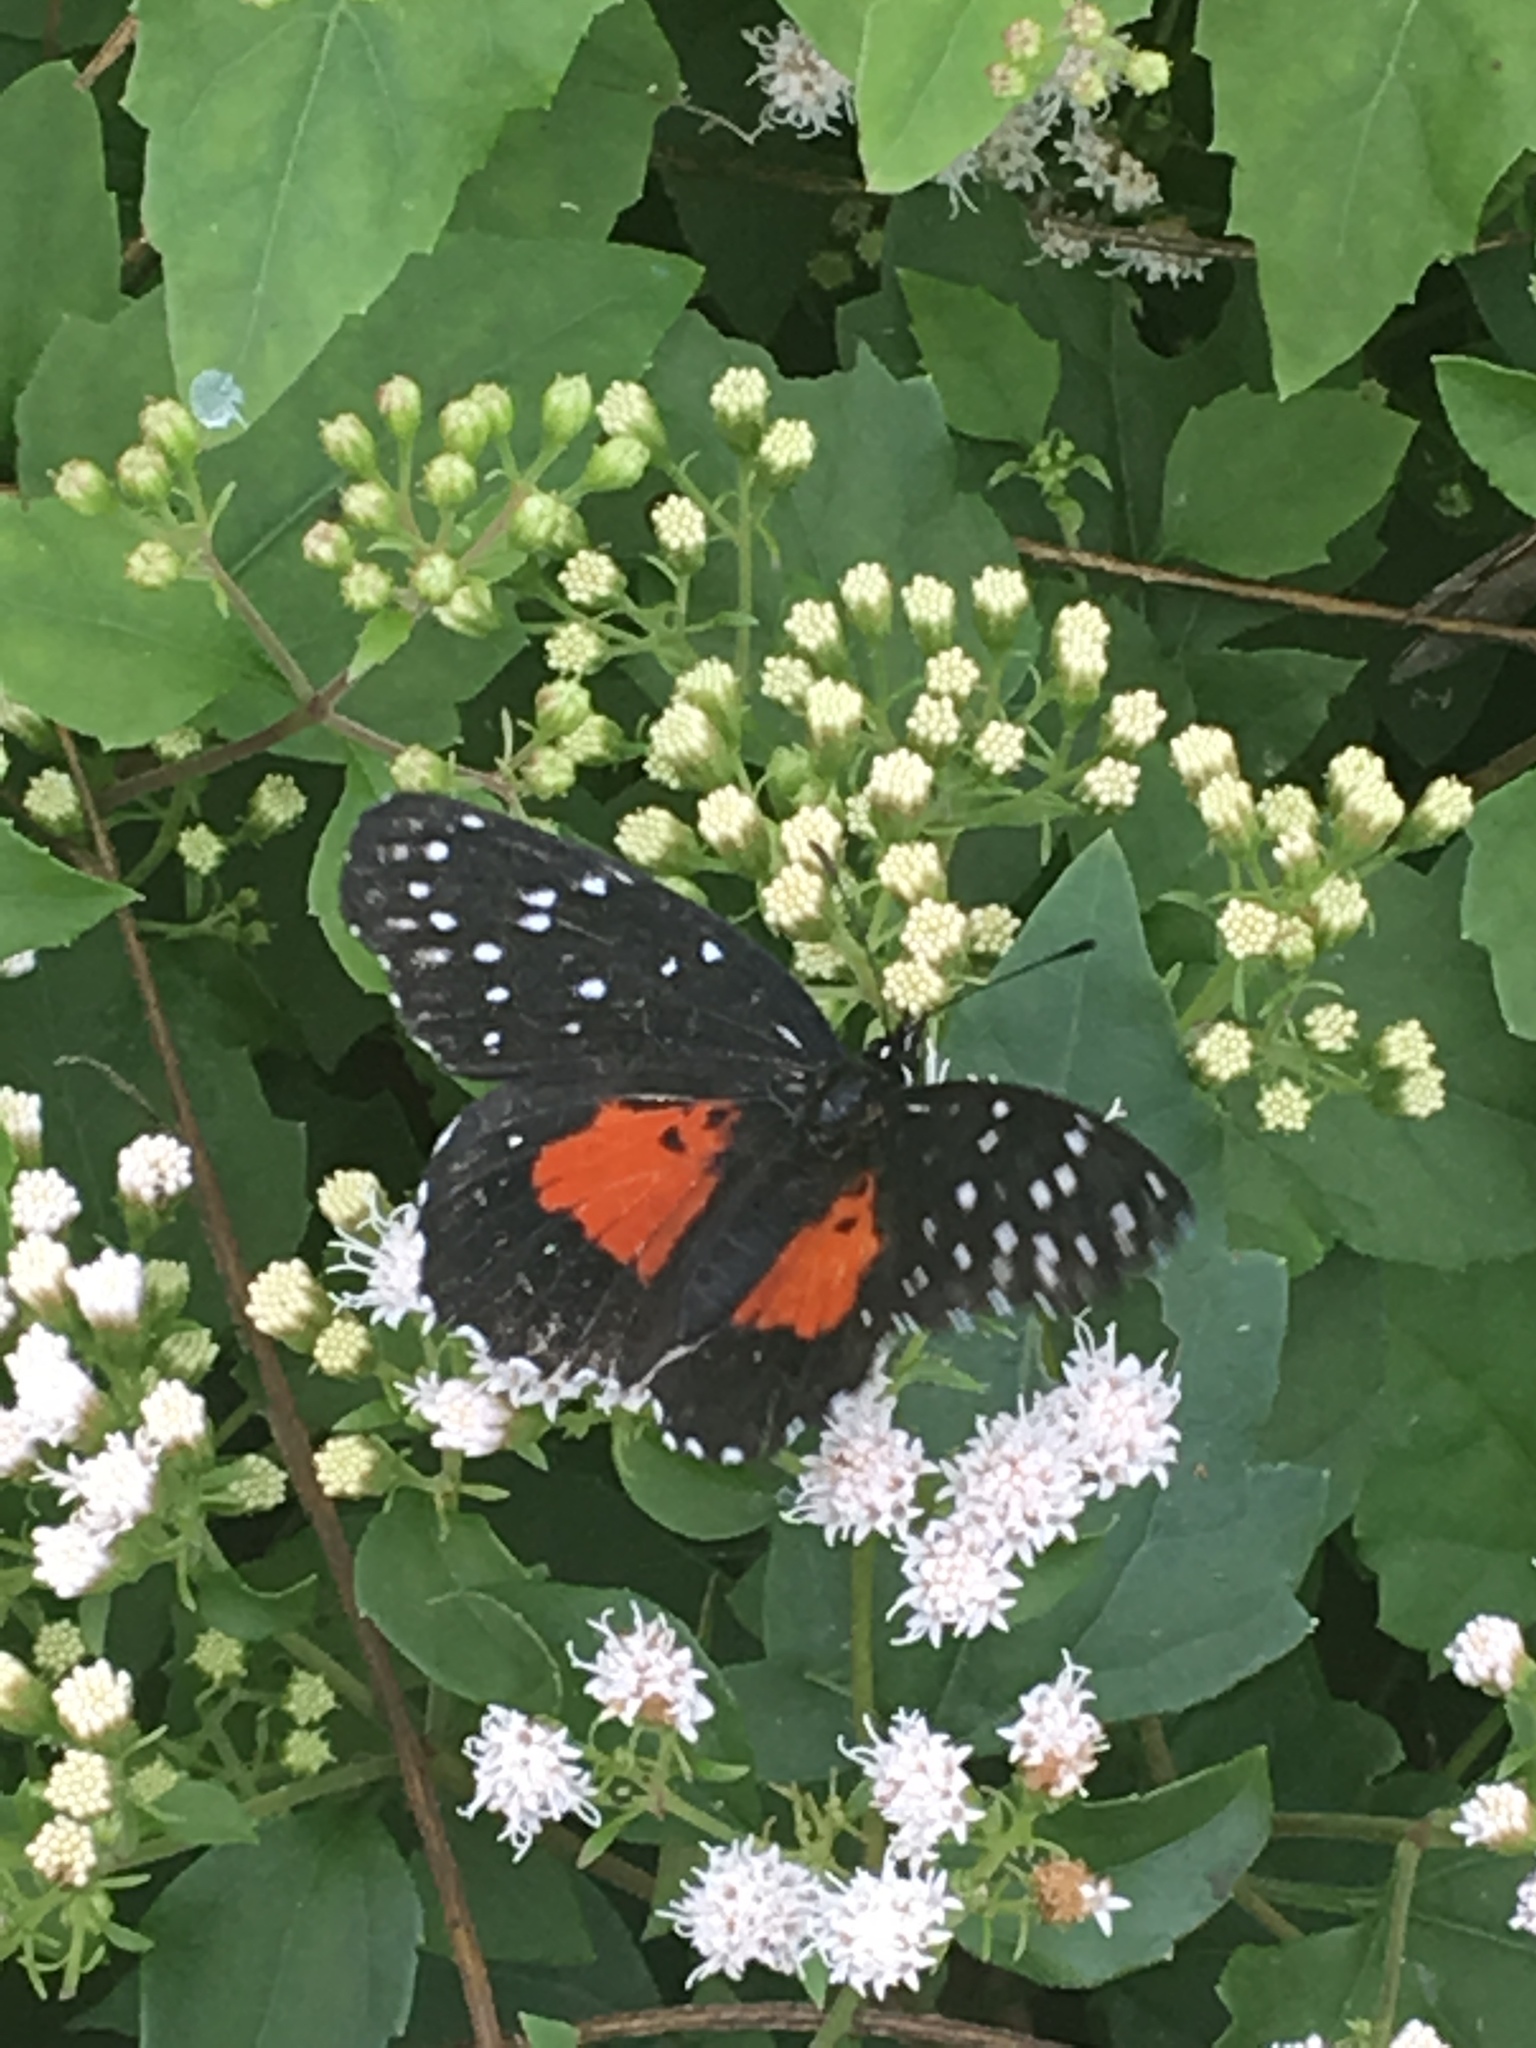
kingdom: Animalia
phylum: Arthropoda
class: Insecta
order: Lepidoptera
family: Nymphalidae
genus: Chlosyne
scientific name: Chlosyne janais
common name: Crimson patch
